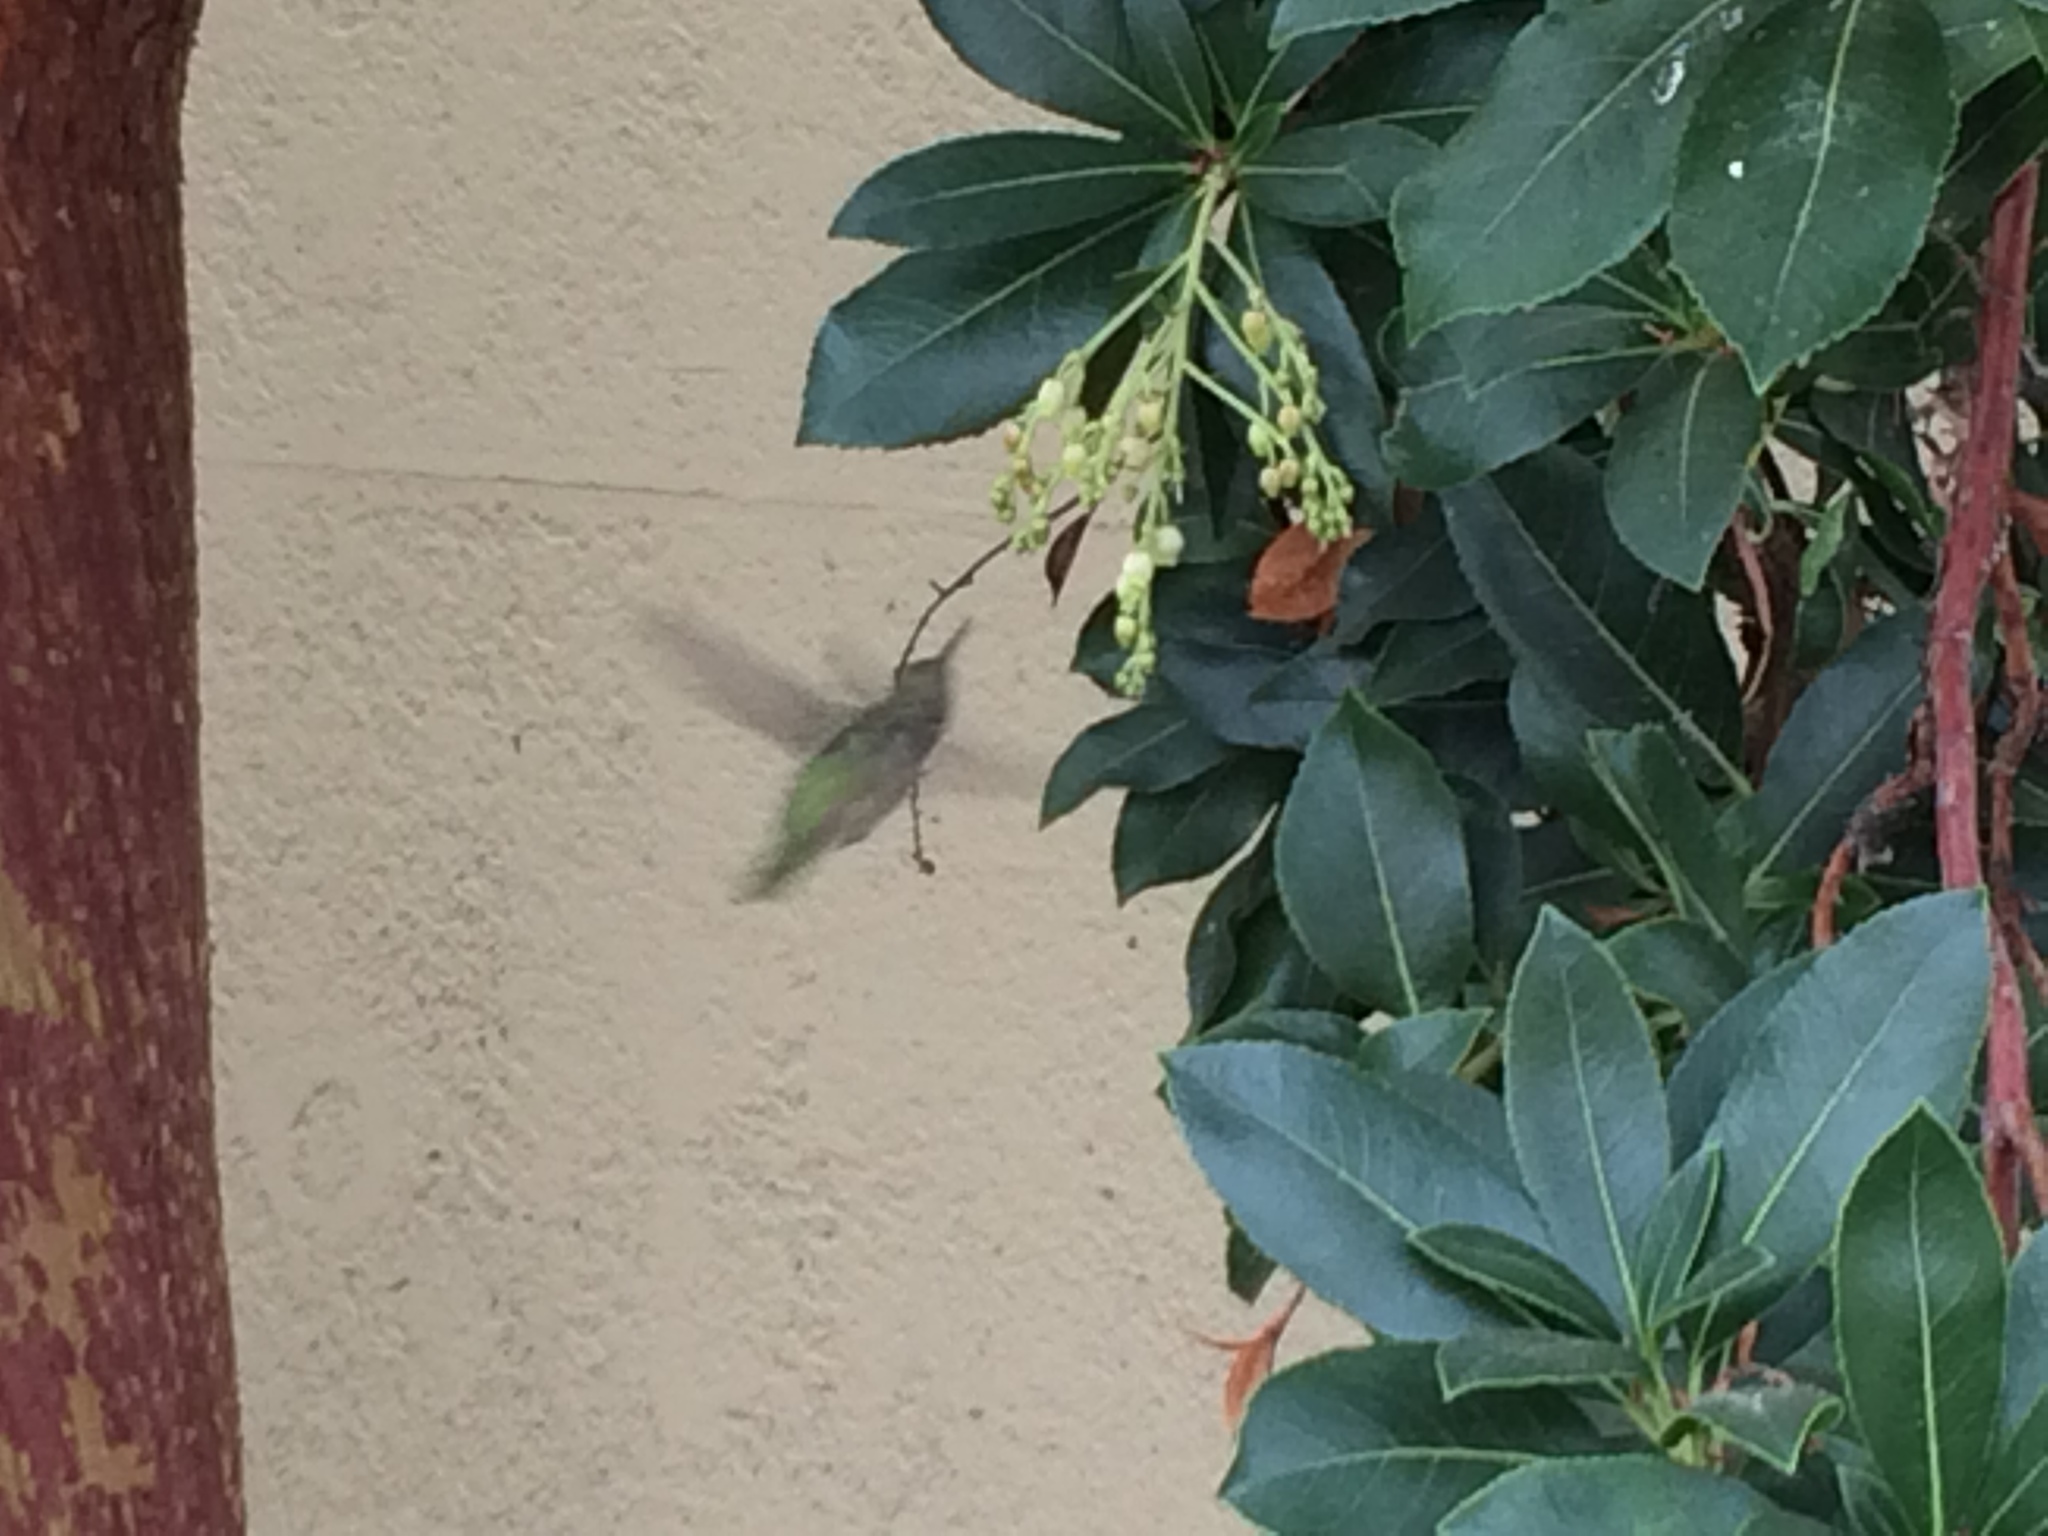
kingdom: Animalia
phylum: Chordata
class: Aves
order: Apodiformes
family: Trochilidae
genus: Calypte
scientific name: Calypte anna
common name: Anna's hummingbird
